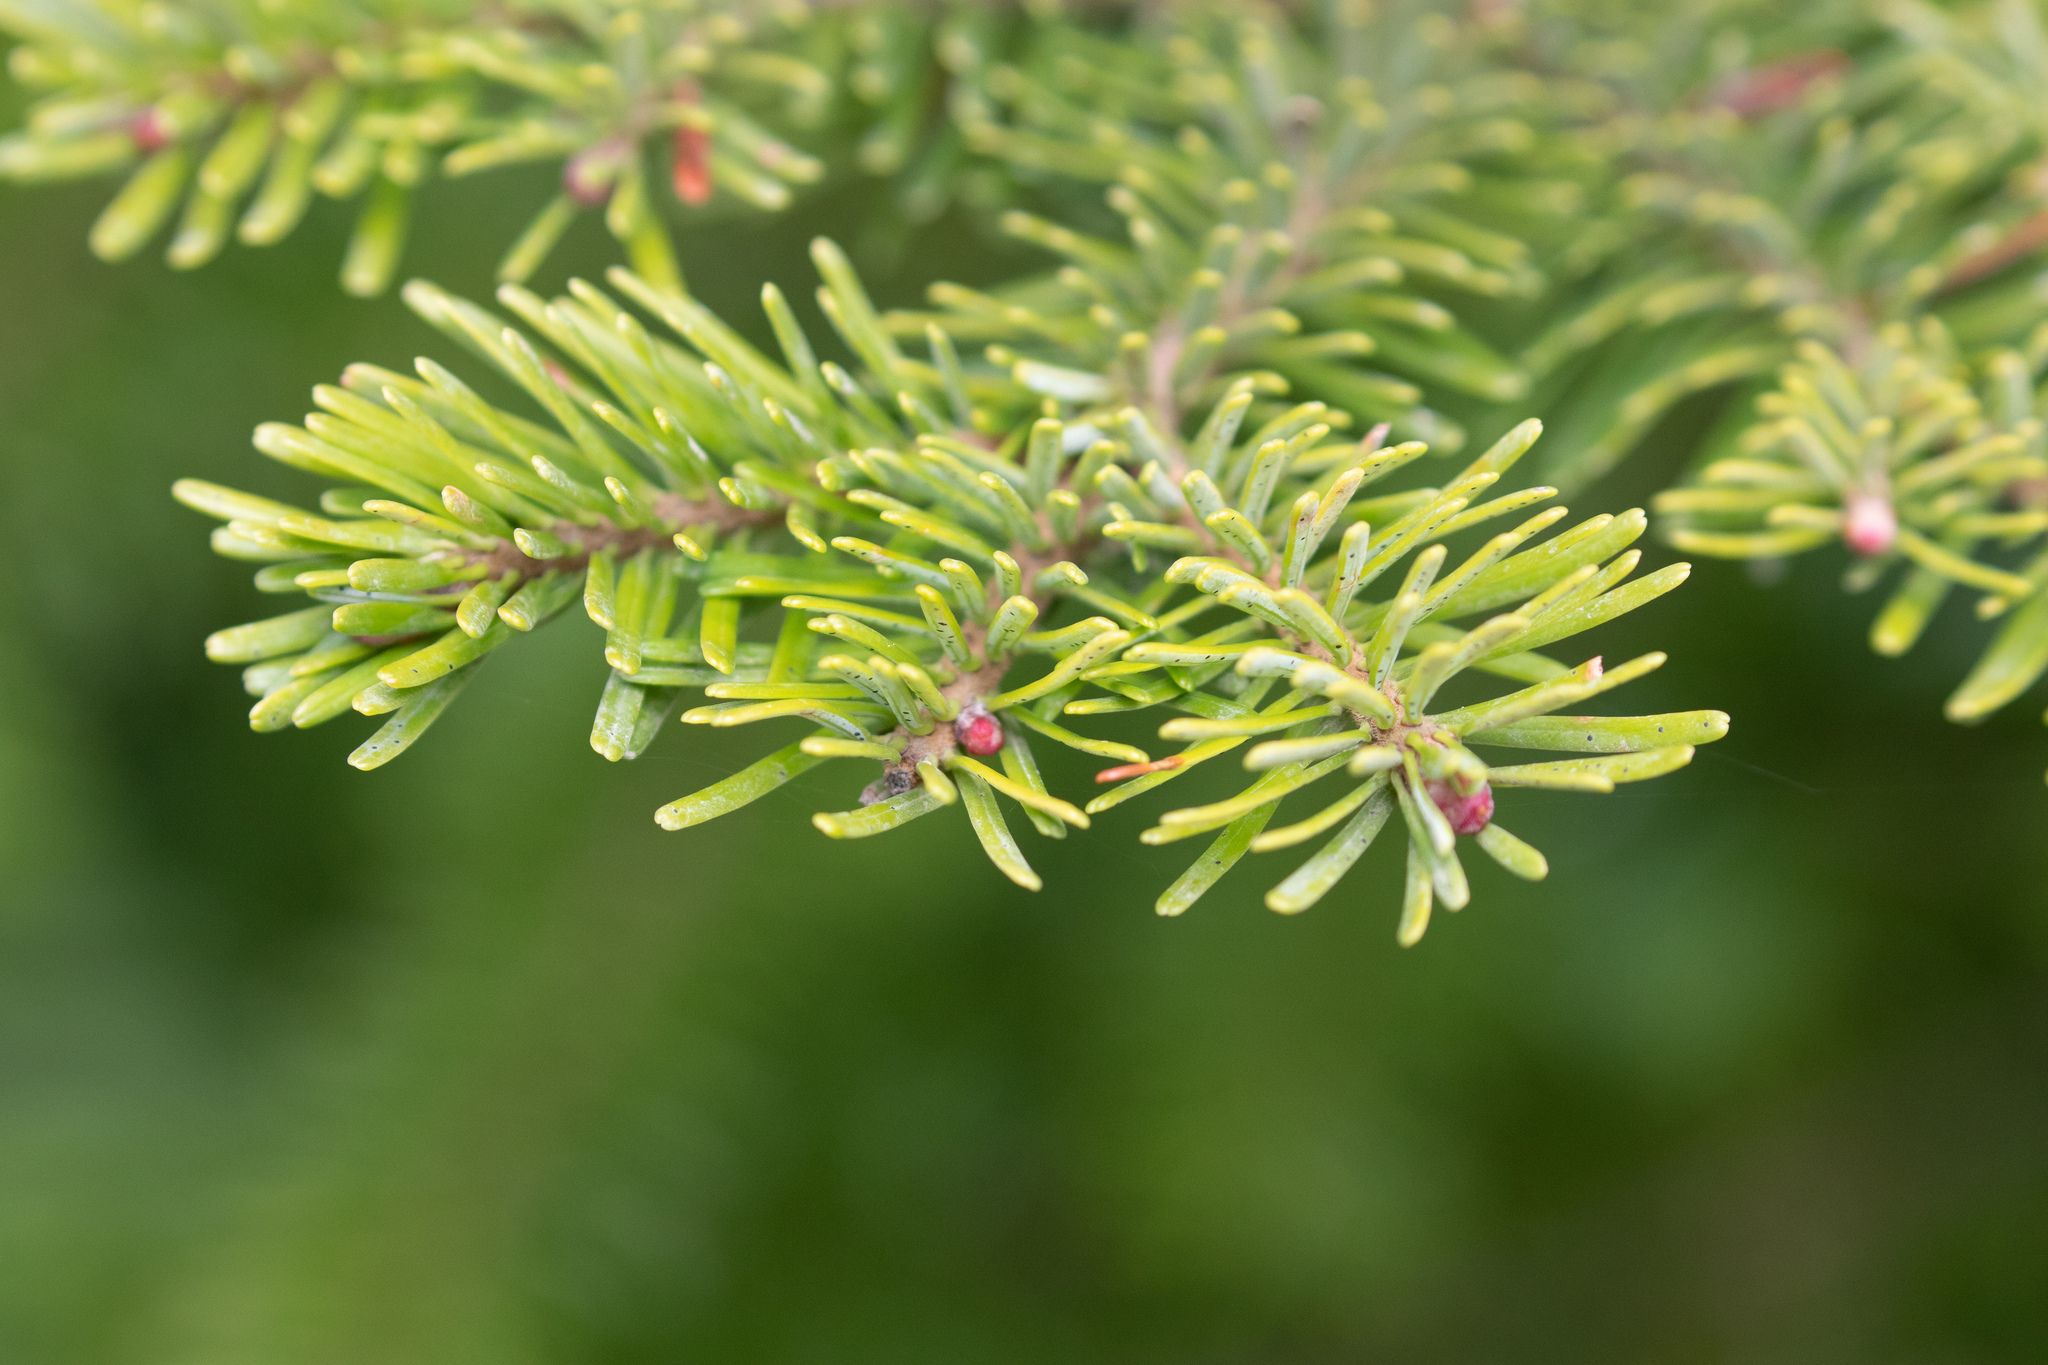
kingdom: Plantae
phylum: Tracheophyta
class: Pinopsida
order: Pinales
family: Pinaceae
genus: Abies
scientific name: Abies lasiocarpa
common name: Subalpine fir
